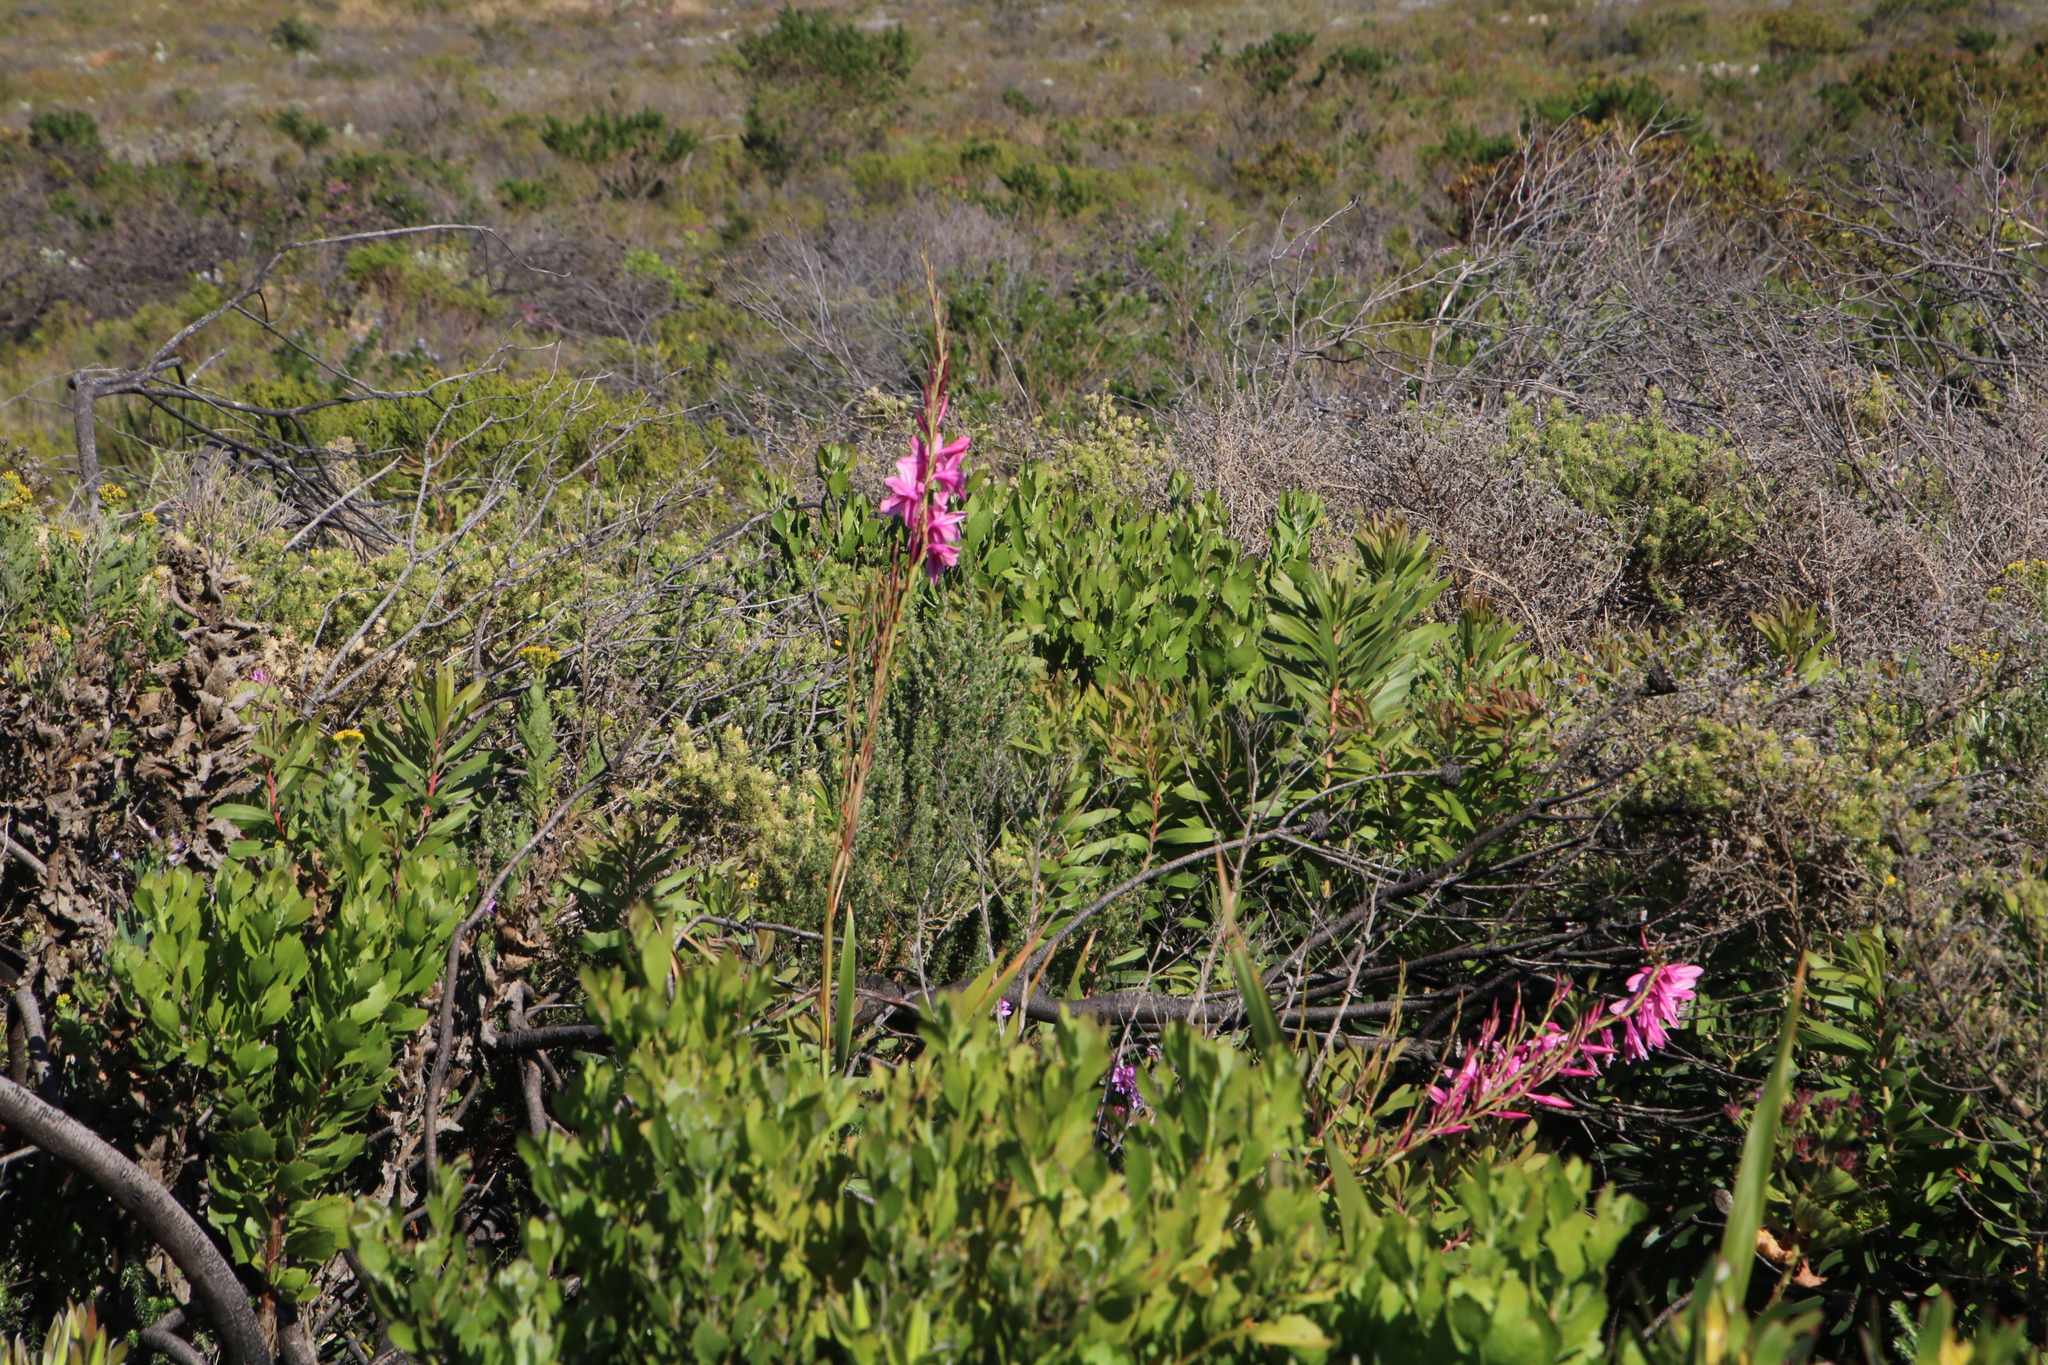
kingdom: Plantae
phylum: Tracheophyta
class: Liliopsida
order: Asparagales
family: Iridaceae
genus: Watsonia
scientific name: Watsonia borbonica
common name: Bugle-lily
